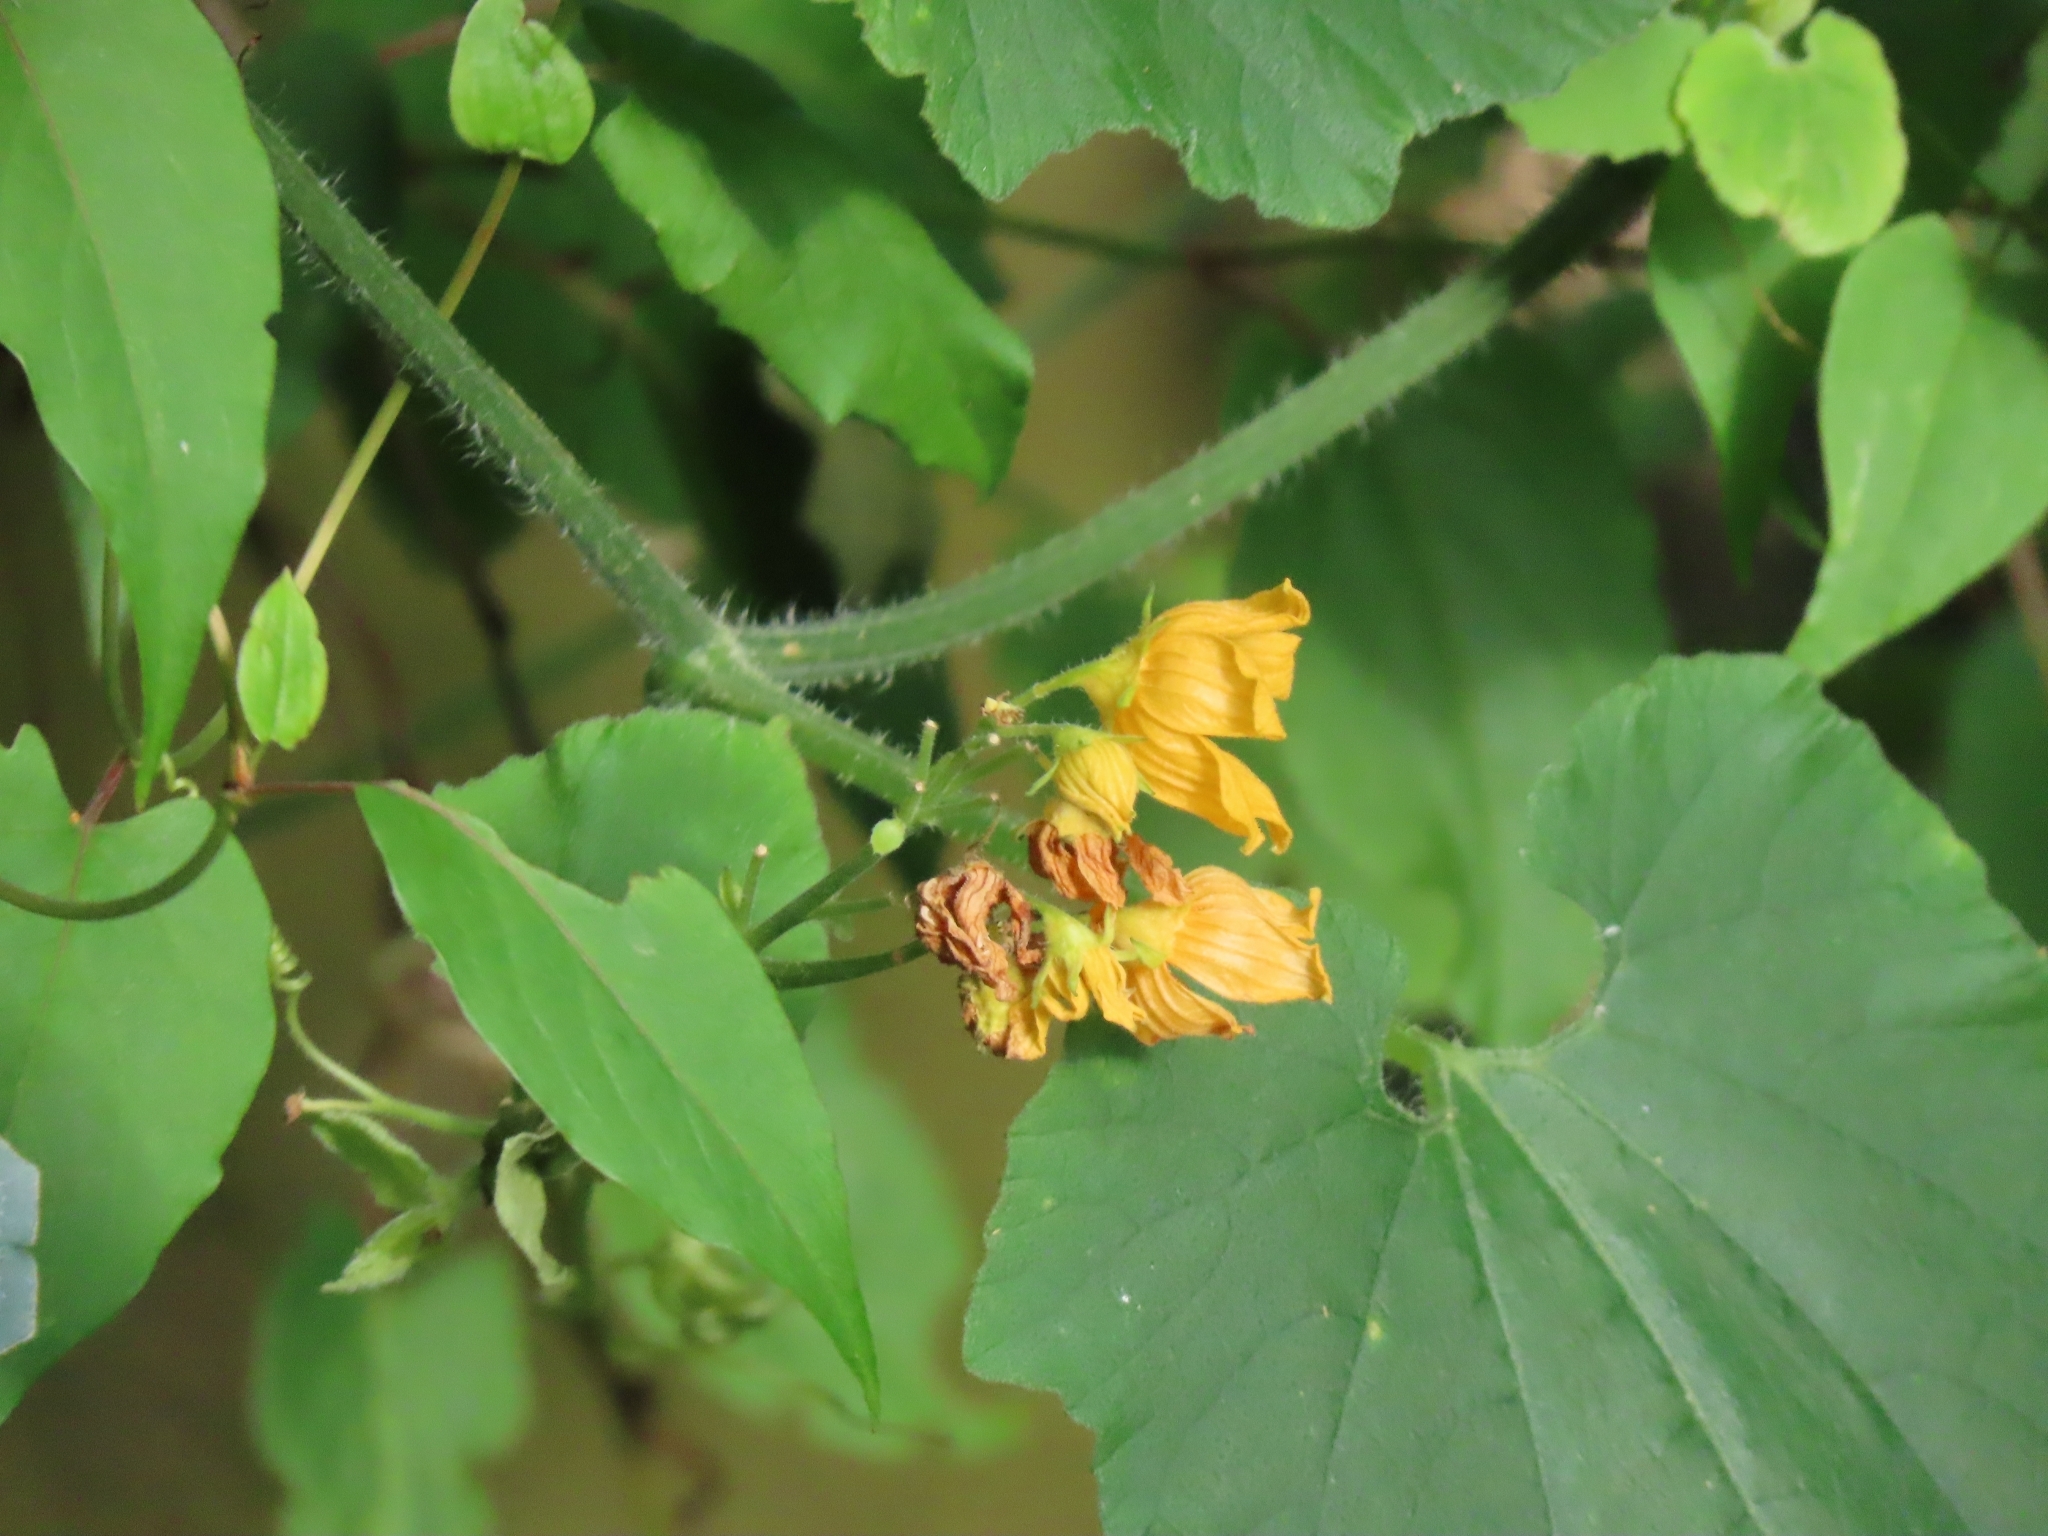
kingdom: Plantae
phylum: Tracheophyta
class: Magnoliopsida
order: Cucurbitales
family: Cucurbitaceae
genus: Thladiantha
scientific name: Thladiantha nudiflora
